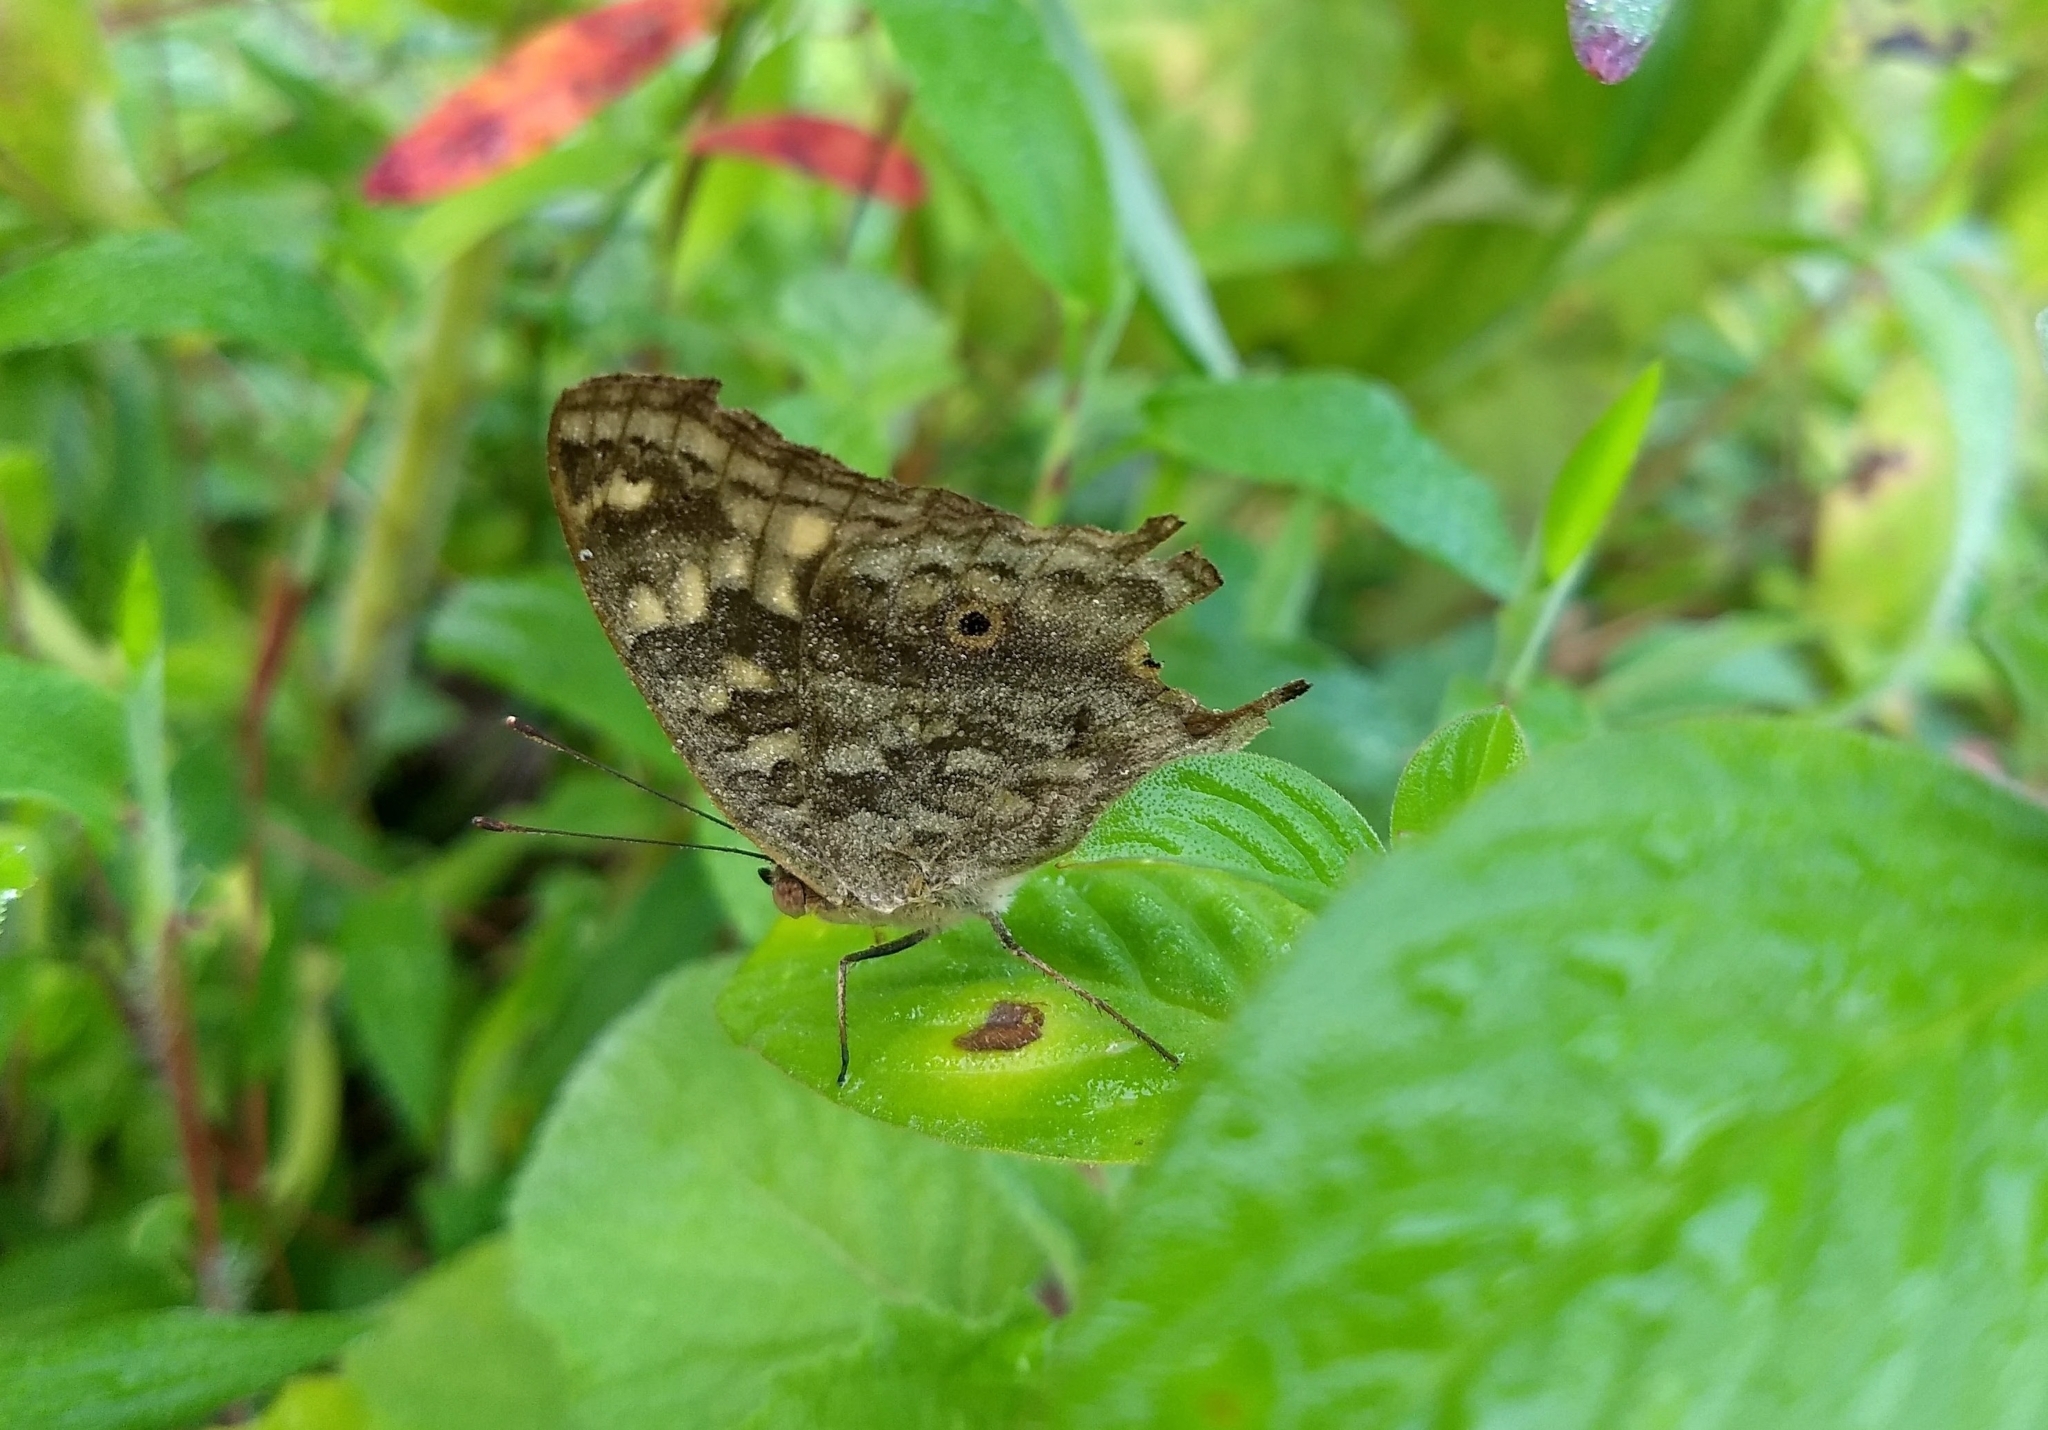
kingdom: Animalia
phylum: Arthropoda
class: Insecta
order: Lepidoptera
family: Nymphalidae
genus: Junonia
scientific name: Junonia lemonias
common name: Lemon pansy
